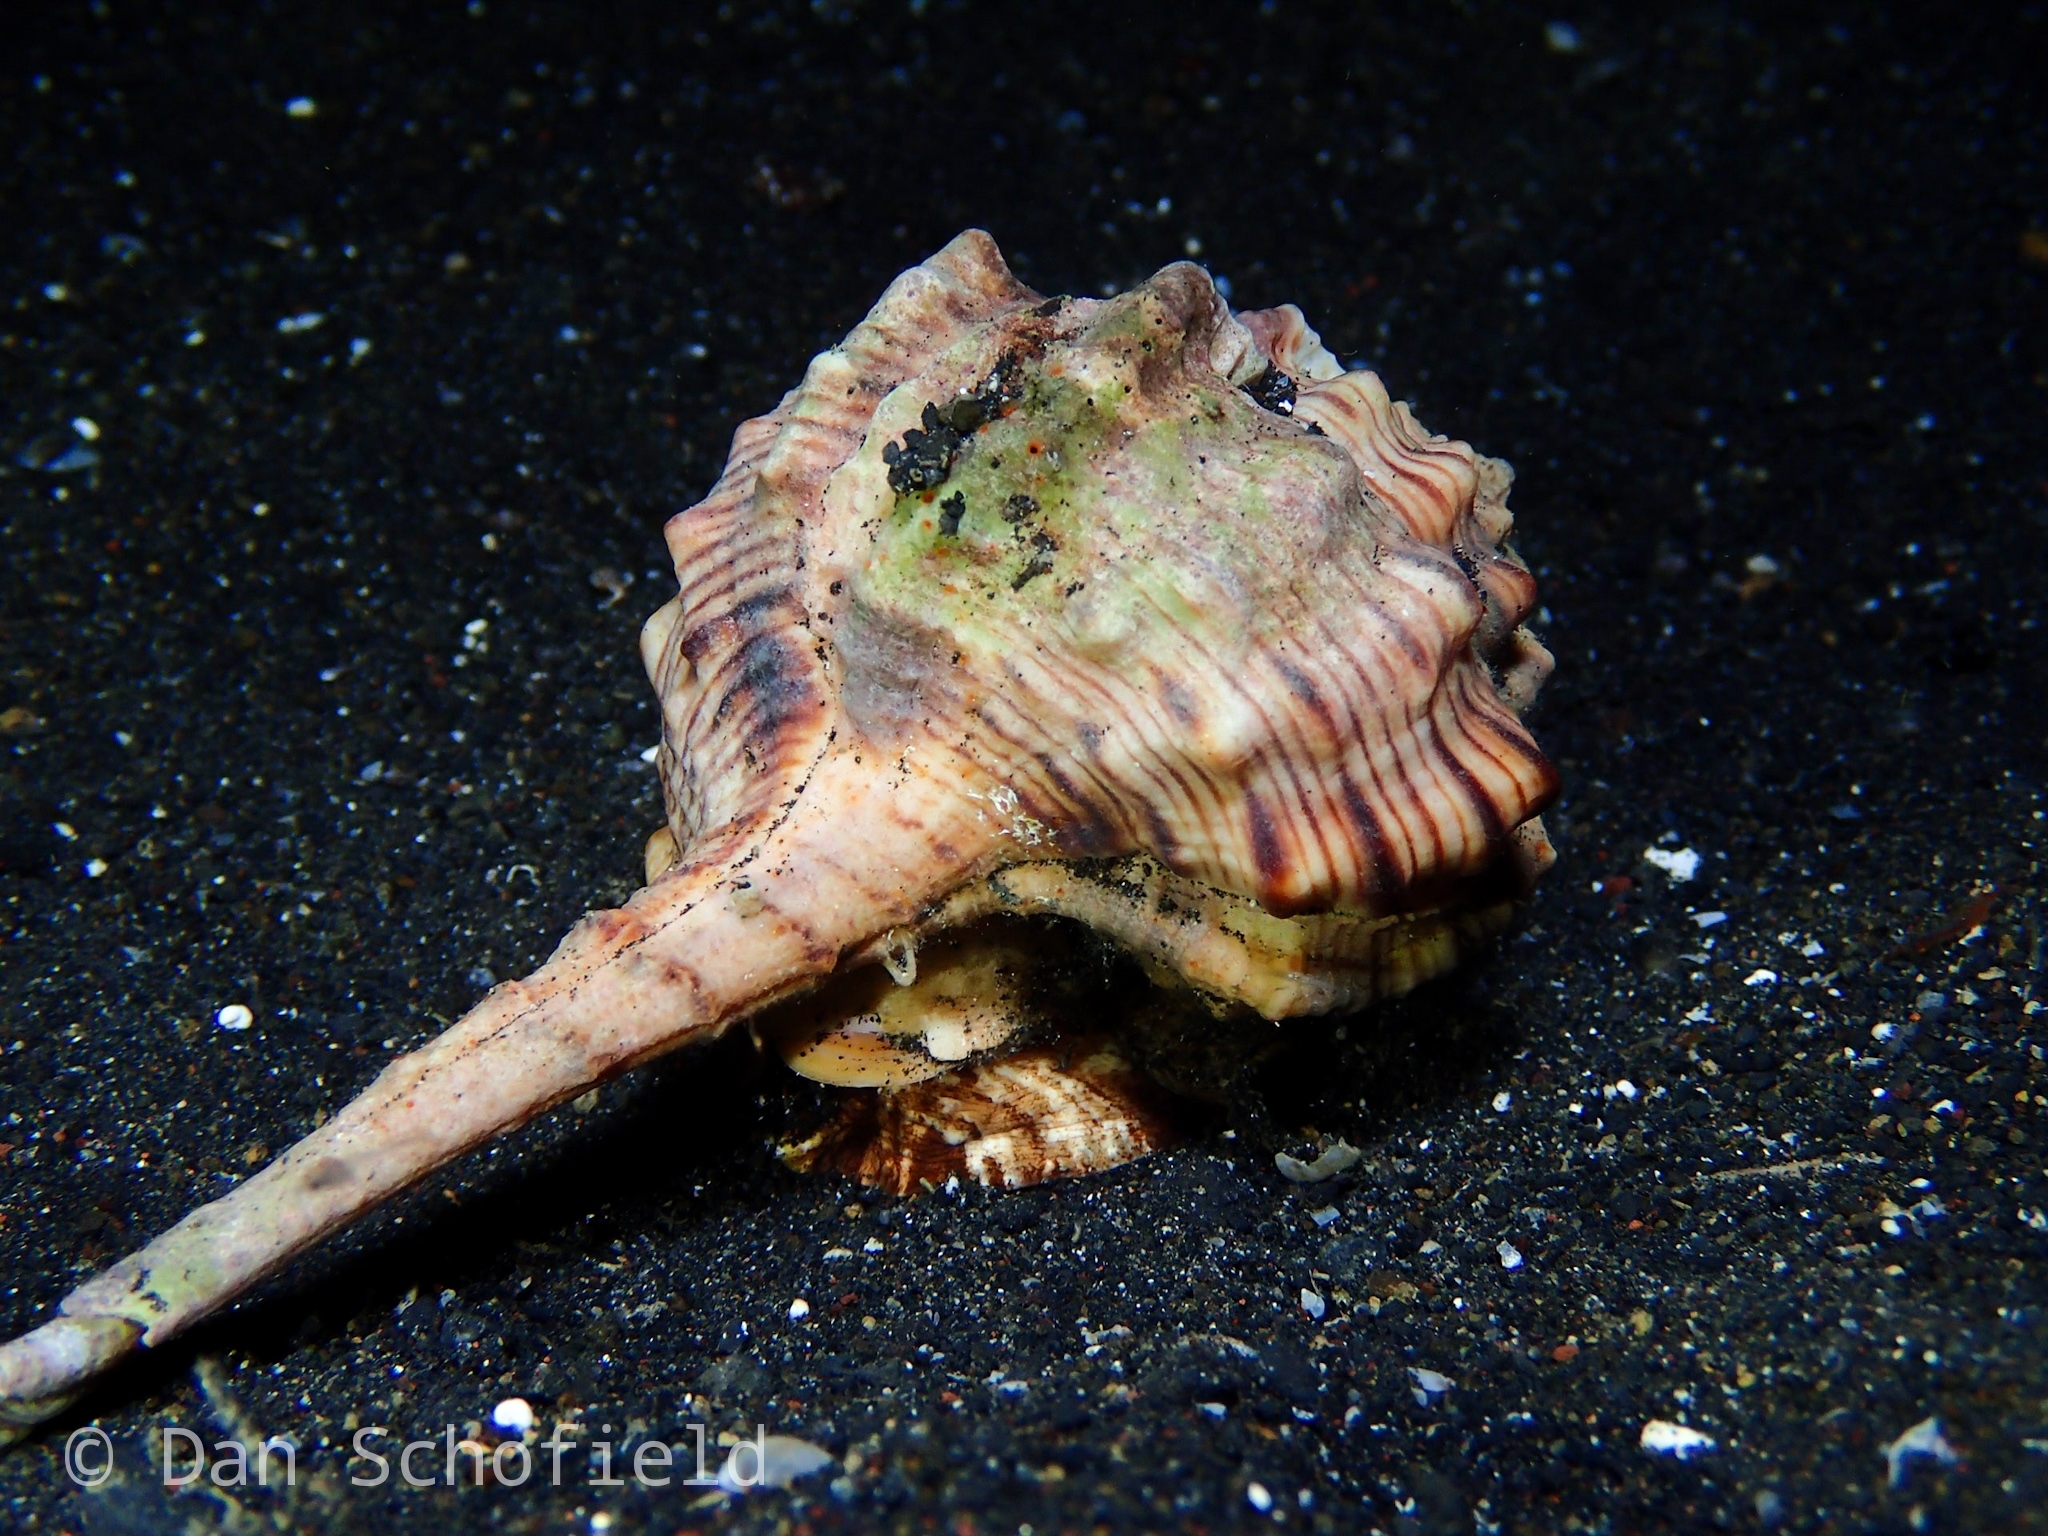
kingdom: Animalia
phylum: Mollusca
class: Gastropoda
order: Neogastropoda
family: Muricidae
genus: Haustellum
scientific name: Haustellum haustellum
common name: Snipe's bill murex
